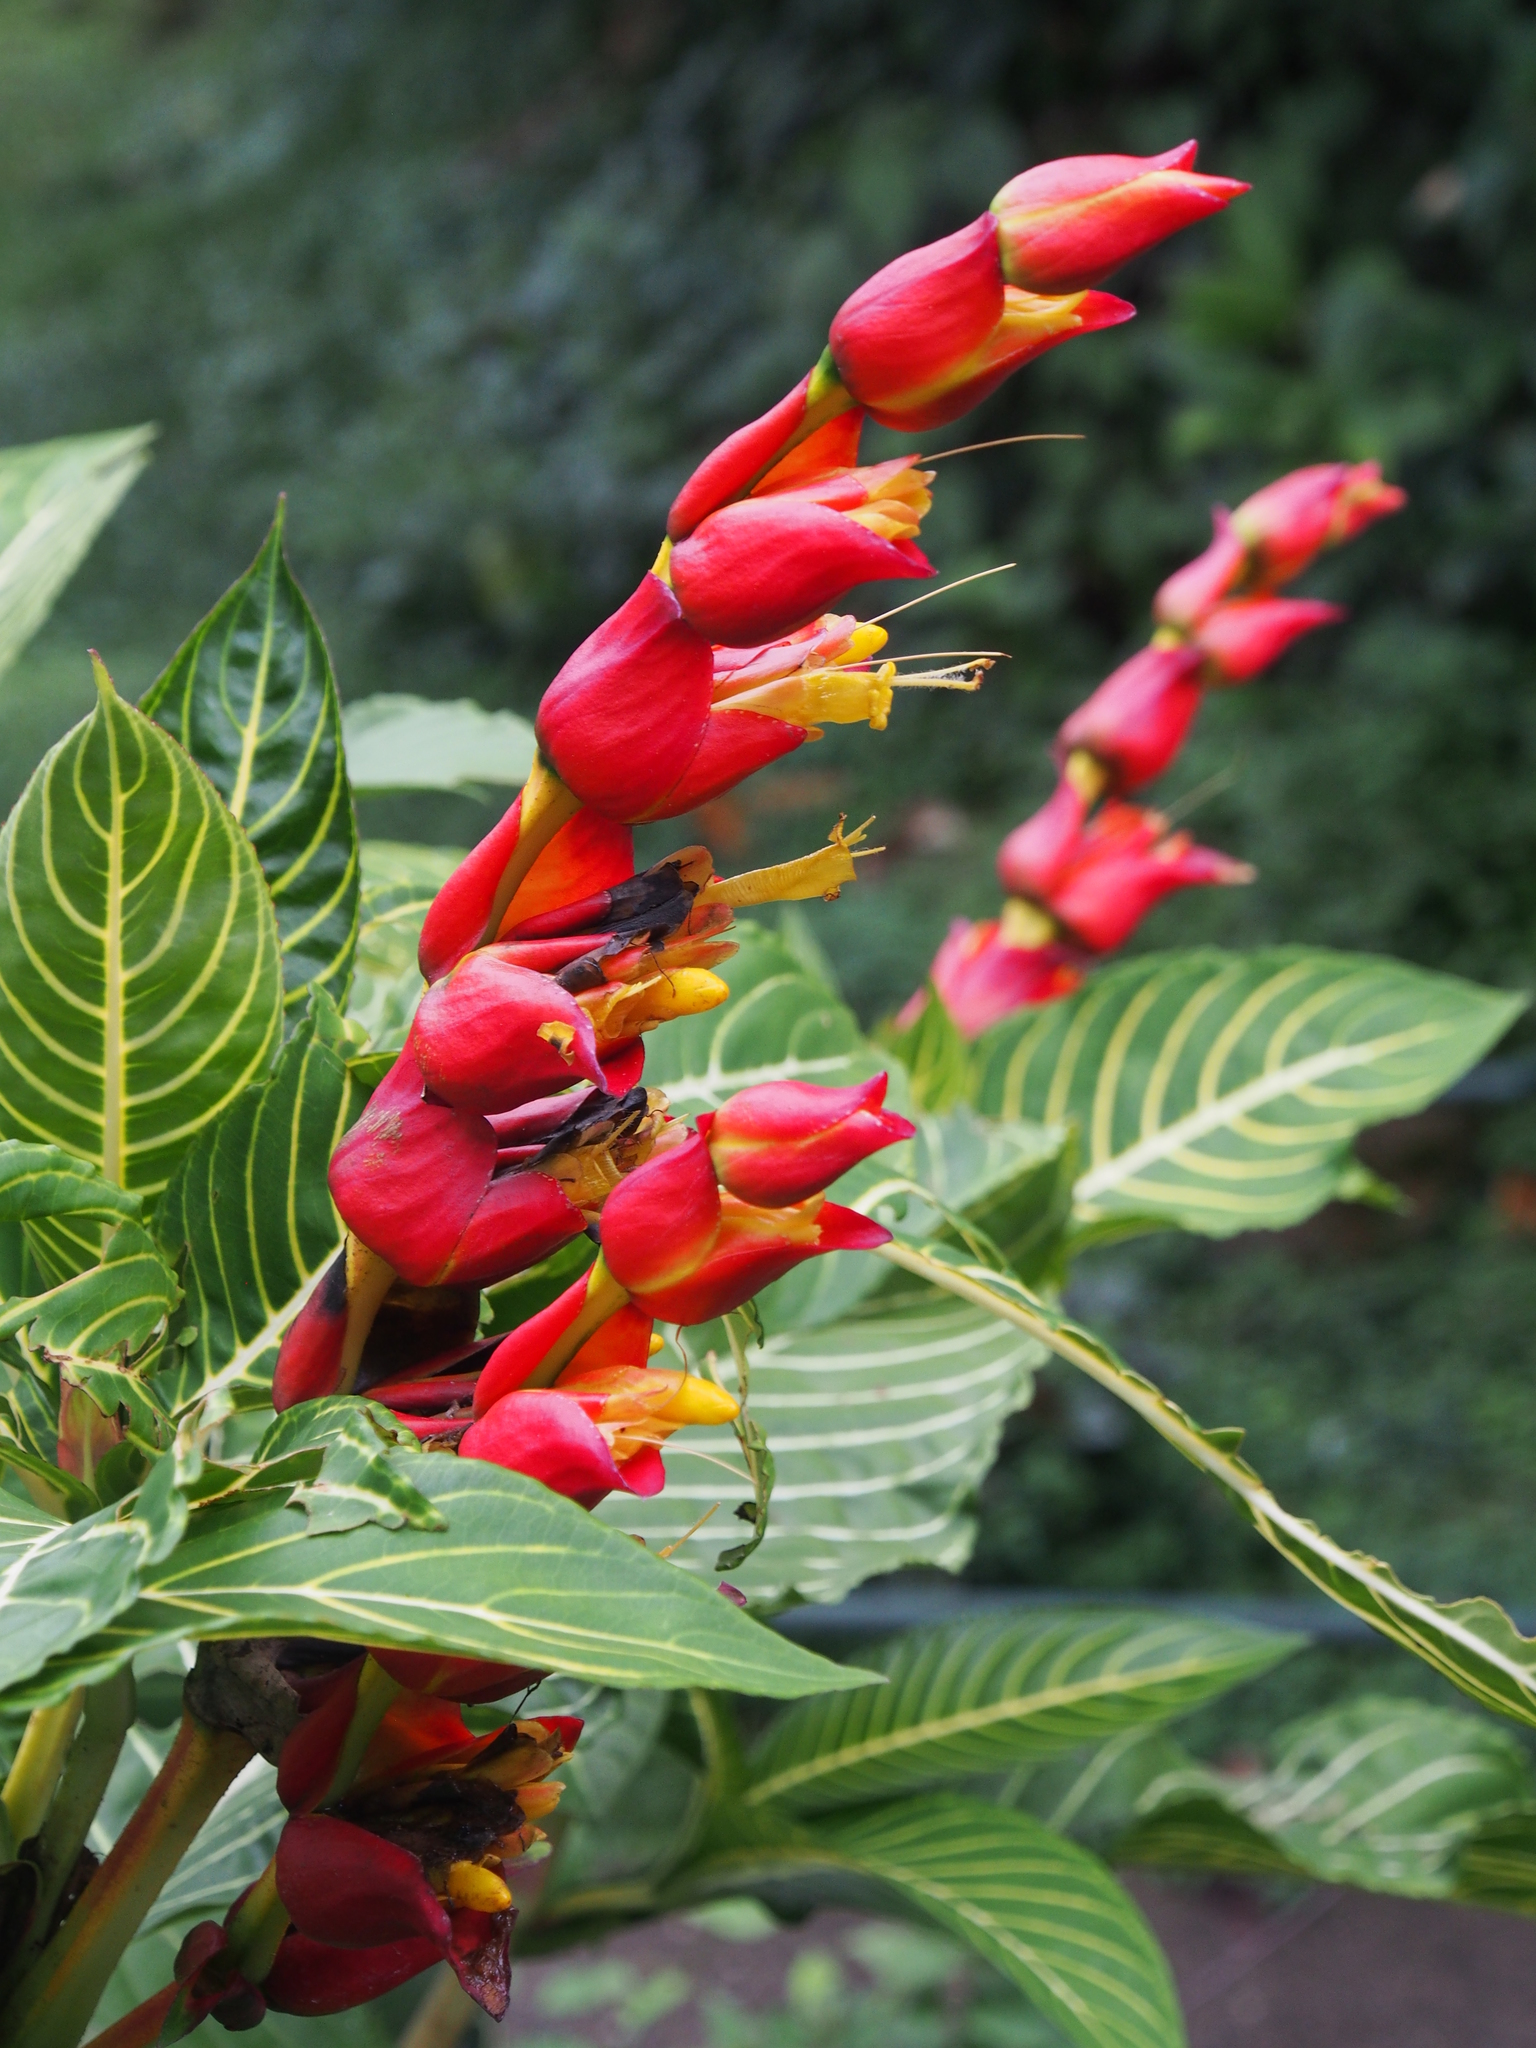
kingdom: Plantae
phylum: Tracheophyta
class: Magnoliopsida
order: Lamiales
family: Acanthaceae
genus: Sanchezia
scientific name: Sanchezia oblonga
